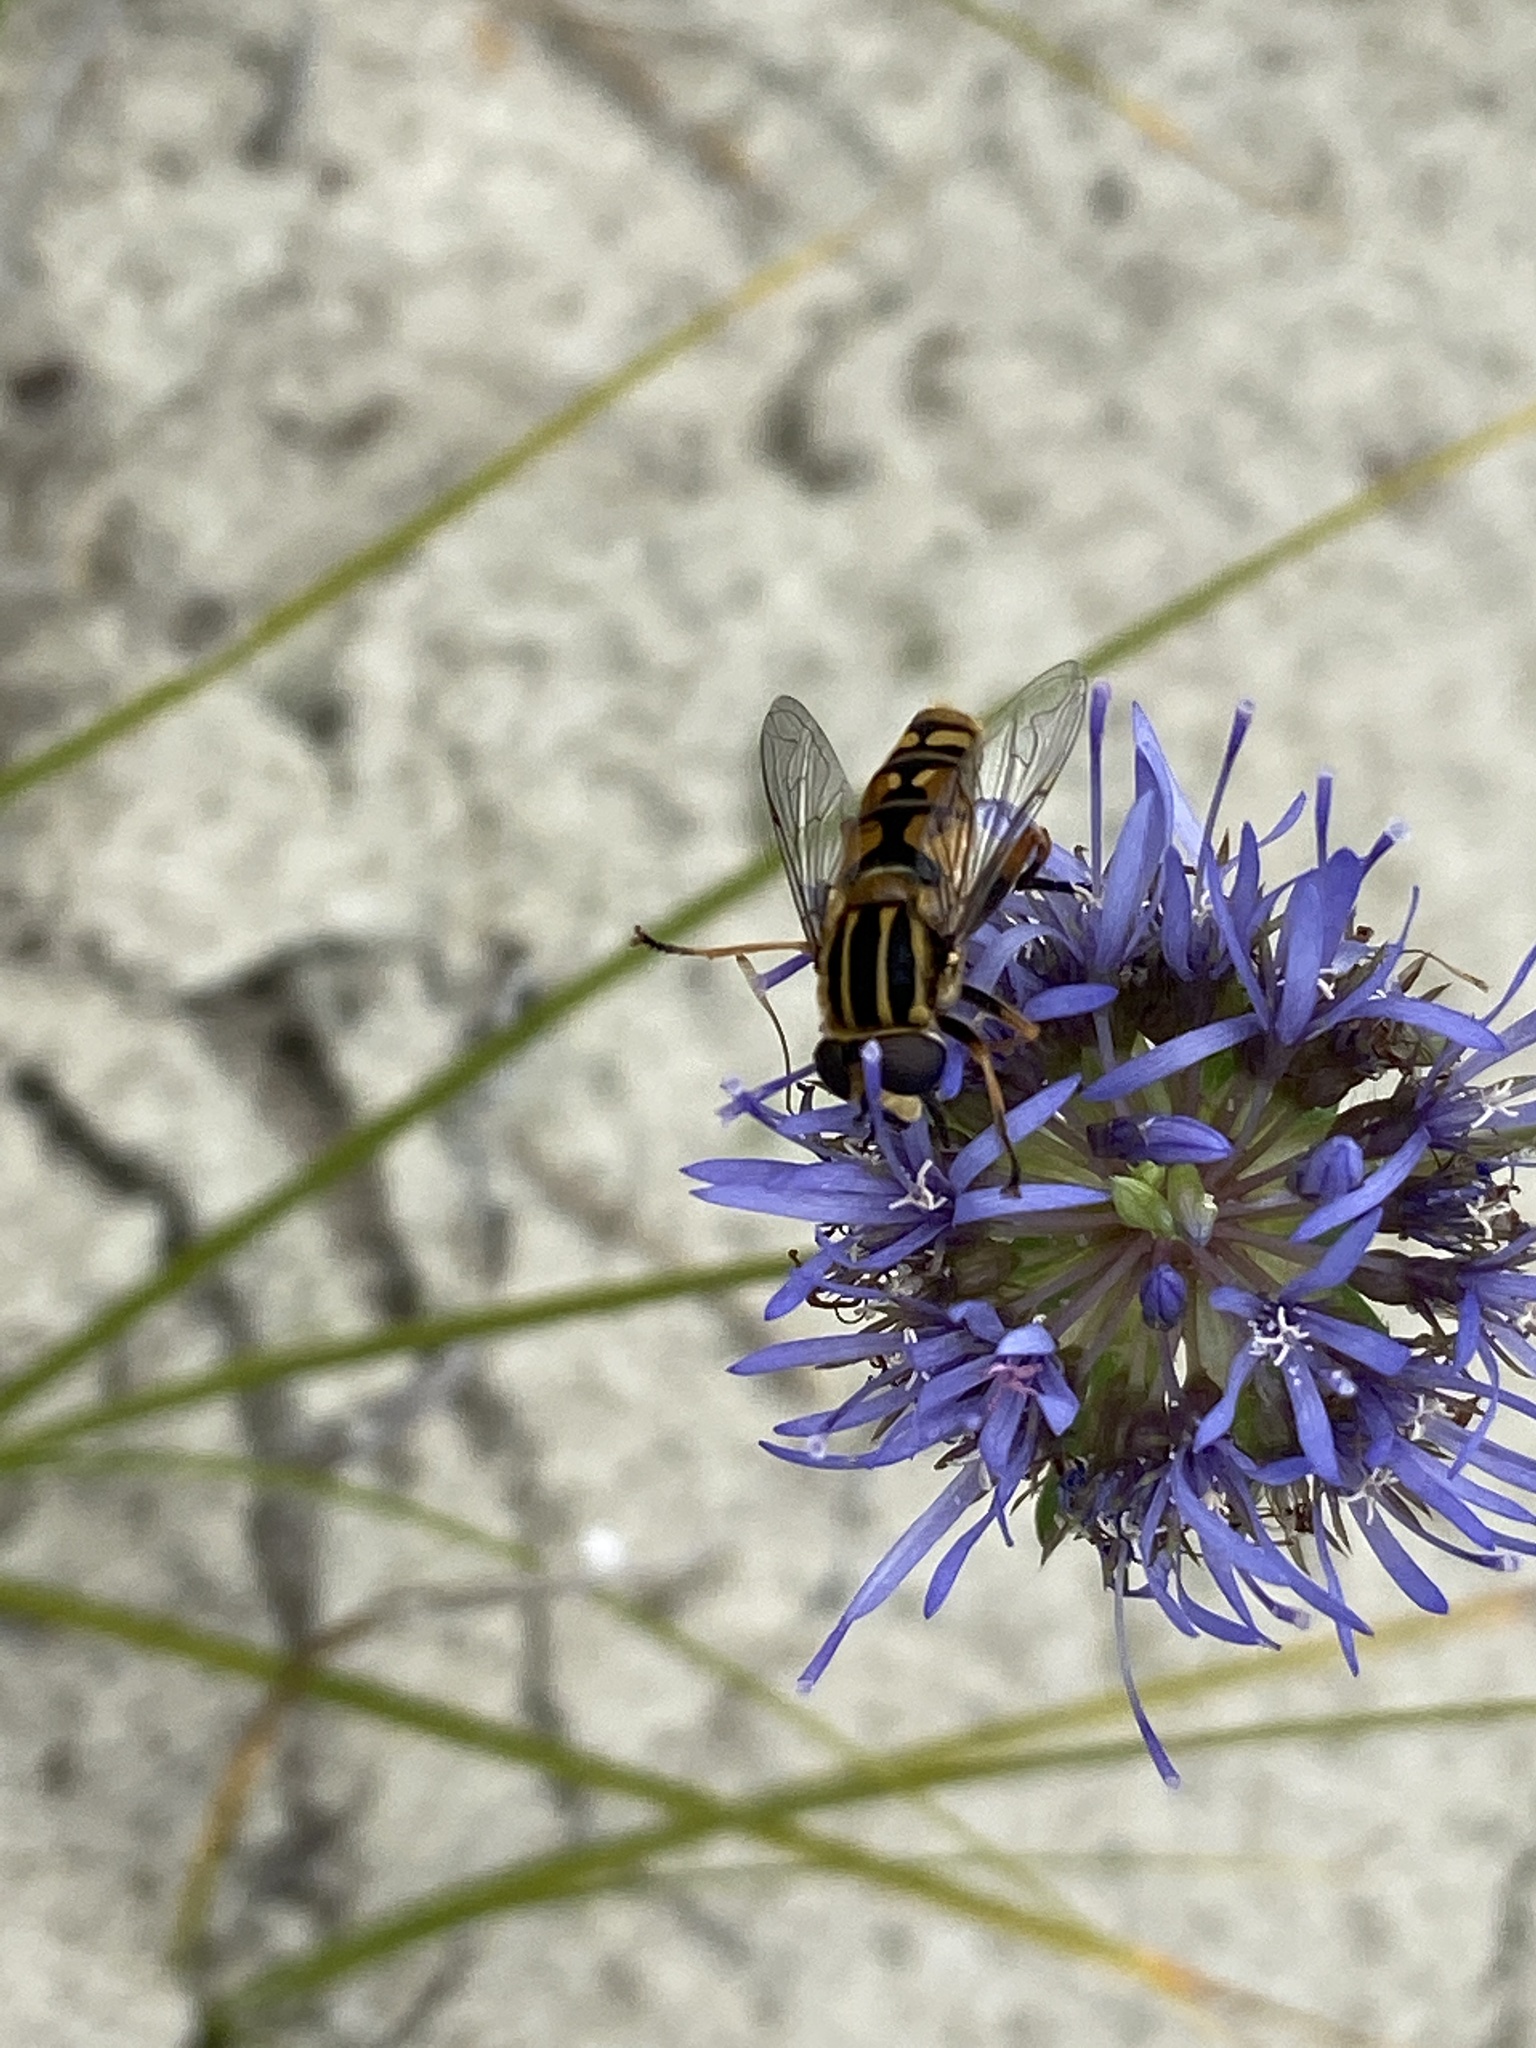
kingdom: Animalia
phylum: Arthropoda
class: Insecta
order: Diptera
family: Syrphidae
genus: Helophilus
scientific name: Helophilus pendulus
